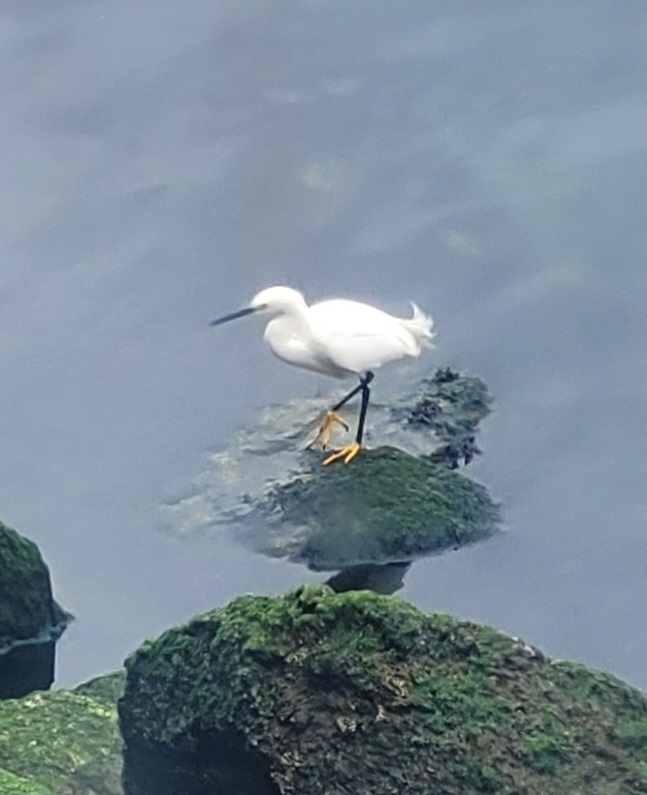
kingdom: Animalia
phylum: Chordata
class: Aves
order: Pelecaniformes
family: Ardeidae
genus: Egretta
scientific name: Egretta thula
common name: Snowy egret
